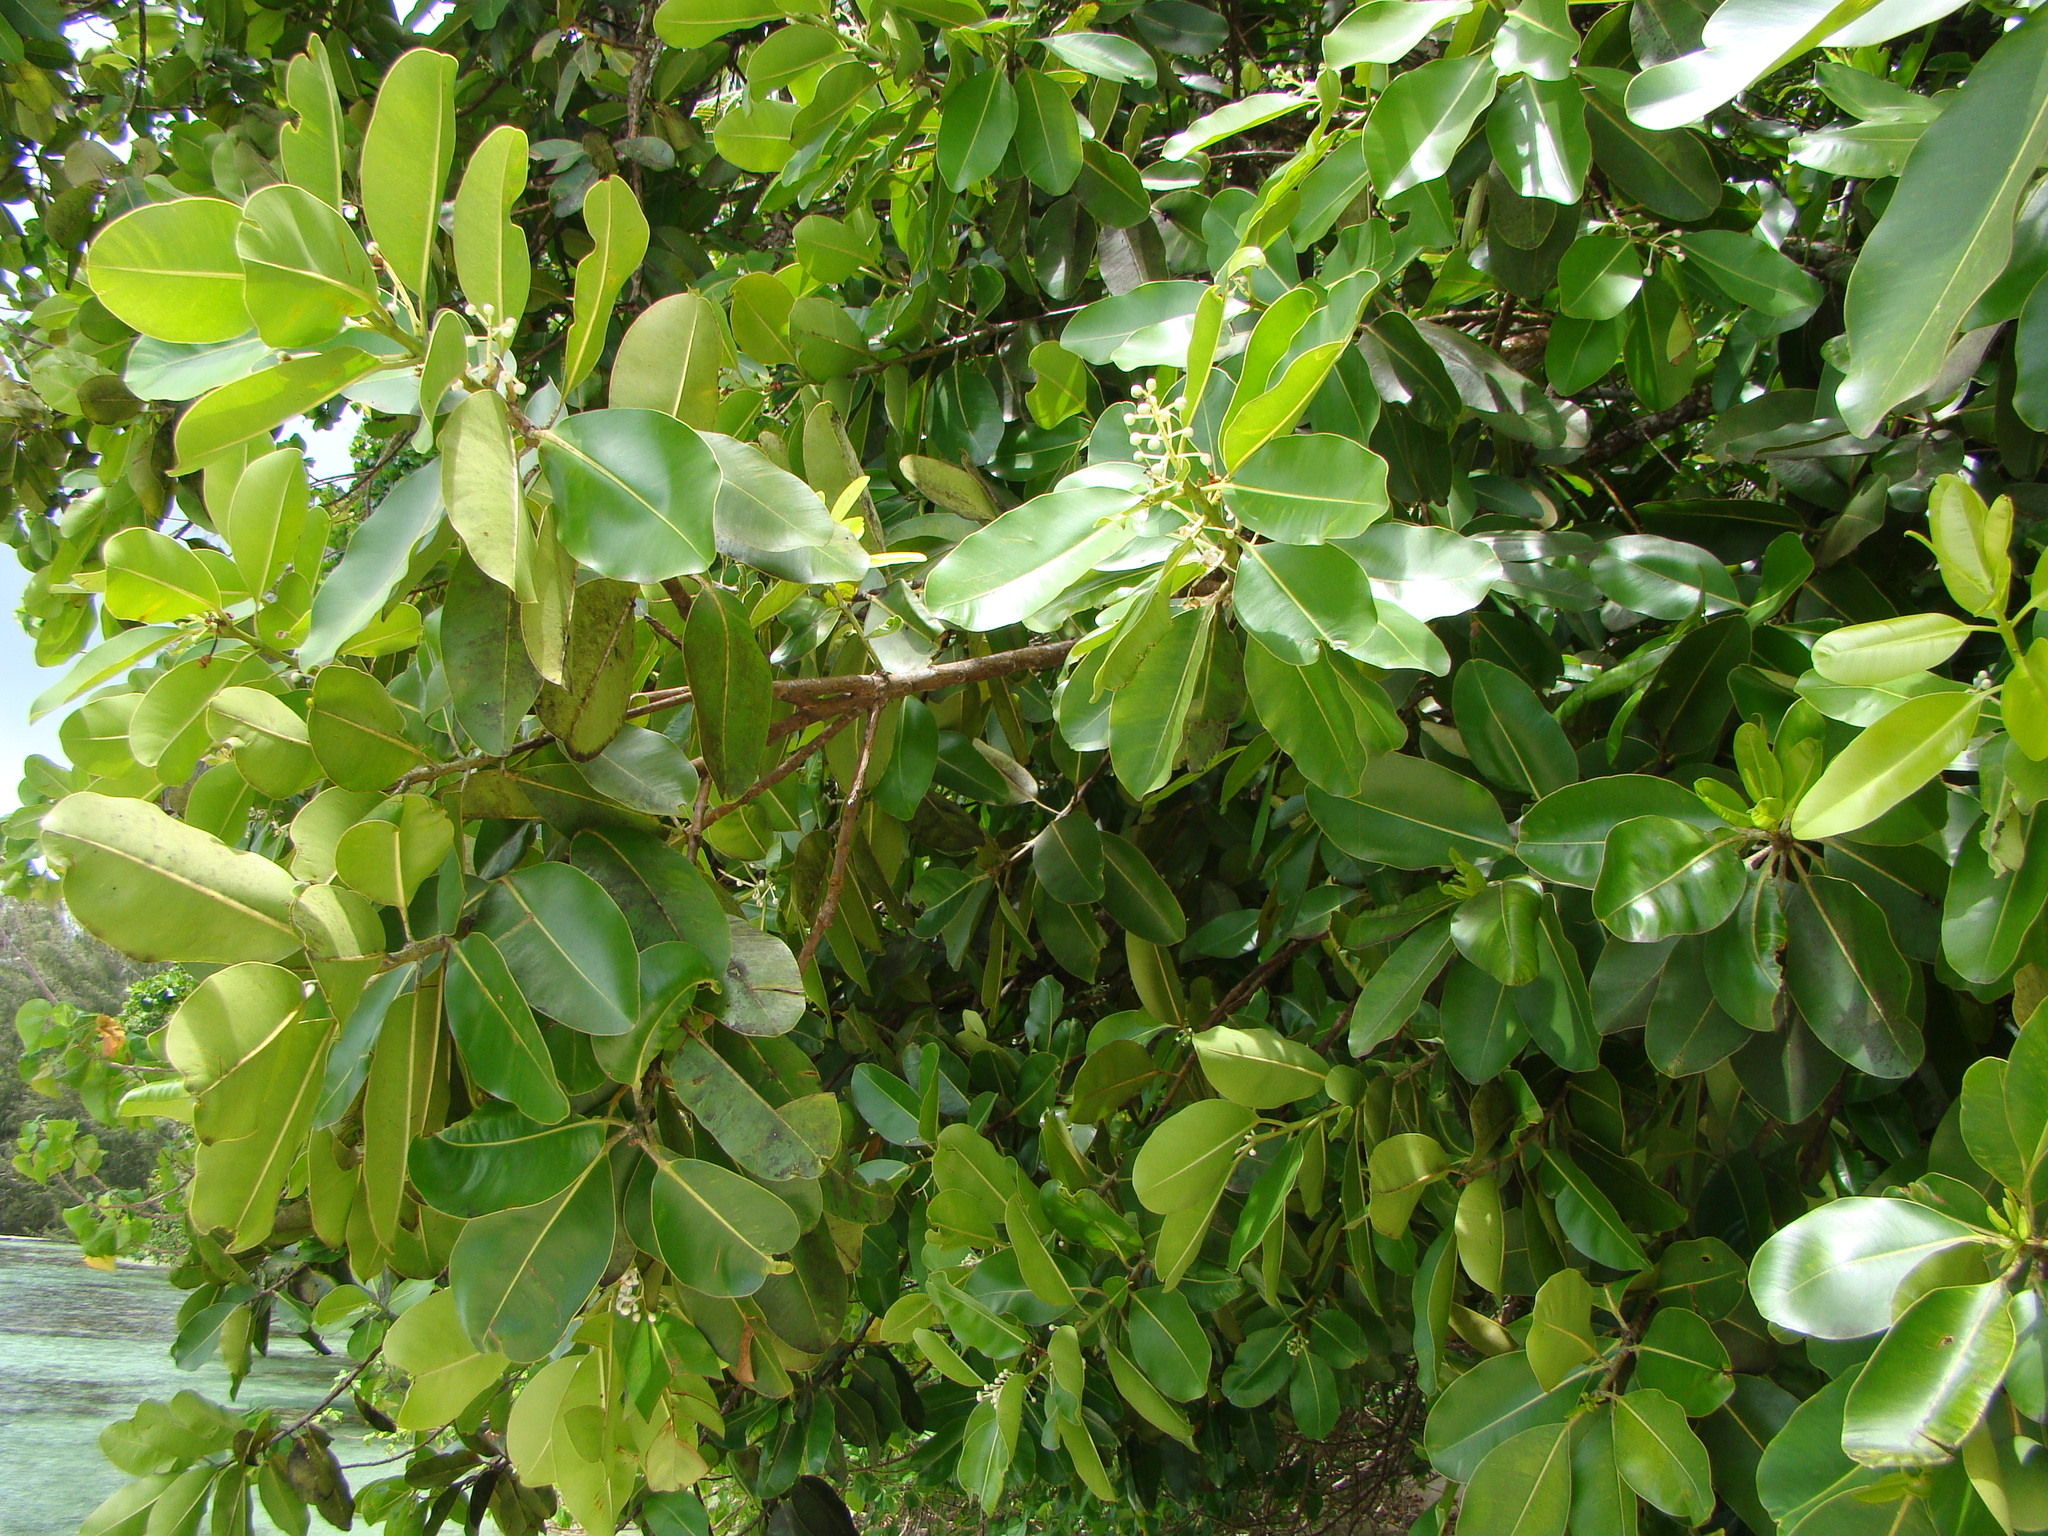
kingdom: Plantae
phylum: Tracheophyta
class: Magnoliopsida
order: Malpighiales
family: Calophyllaceae
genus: Calophyllum
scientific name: Calophyllum inophyllum
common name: Alexandrian laurel
